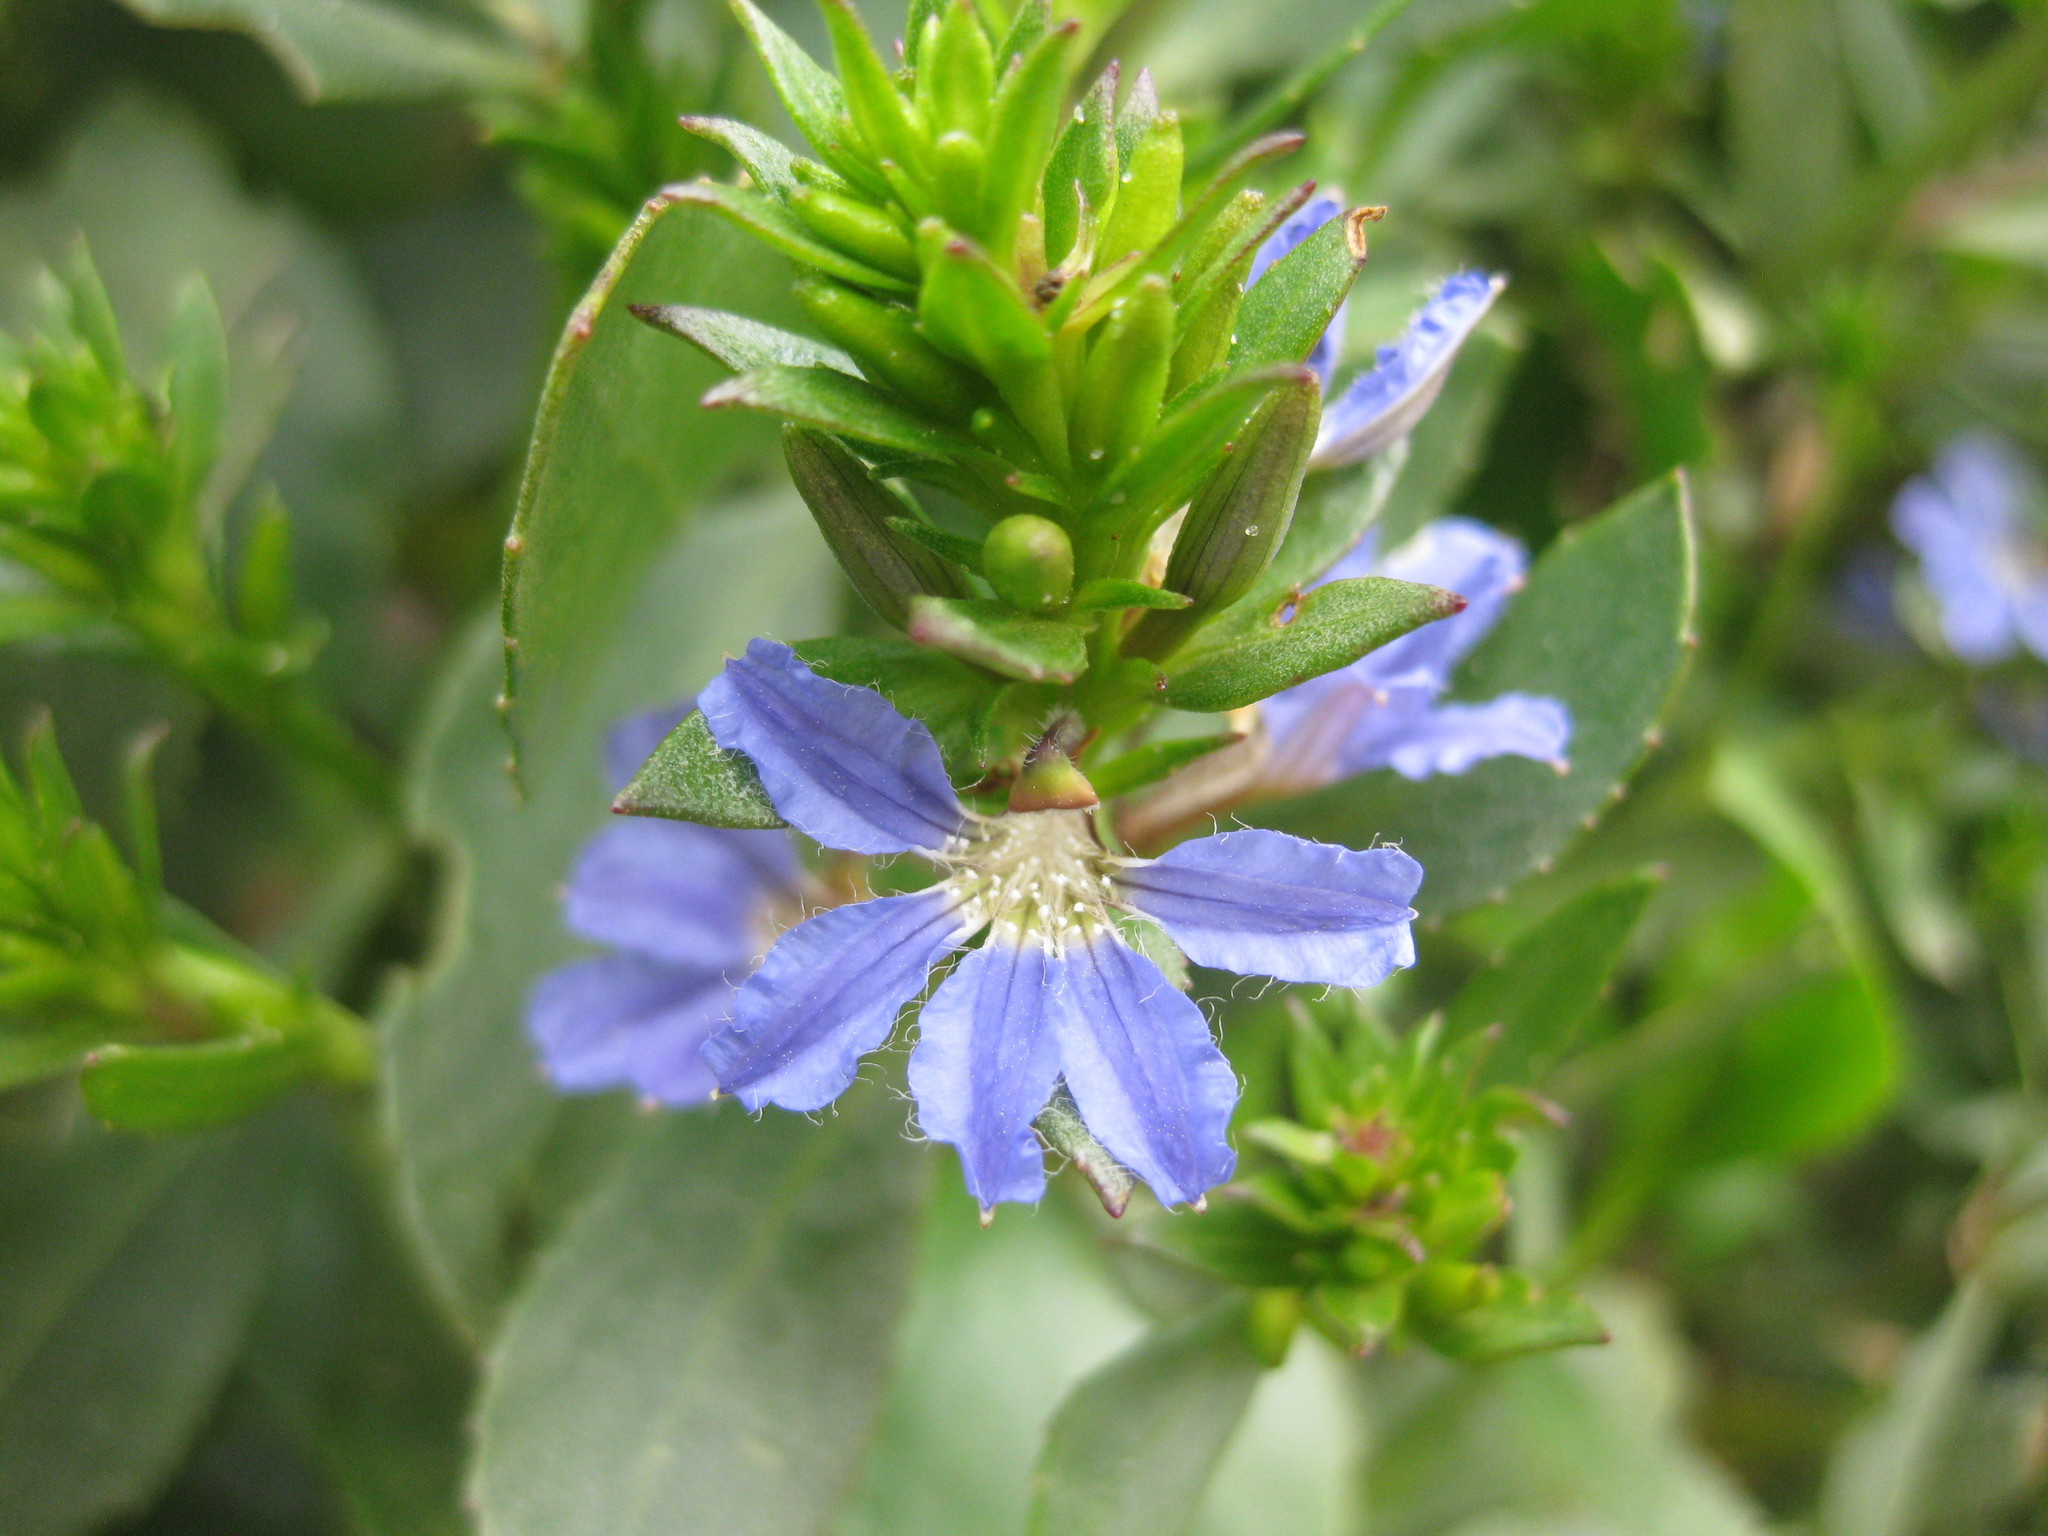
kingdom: Plantae
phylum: Tracheophyta
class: Magnoliopsida
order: Asterales
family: Goodeniaceae
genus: Scaevola
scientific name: Scaevola nitida
